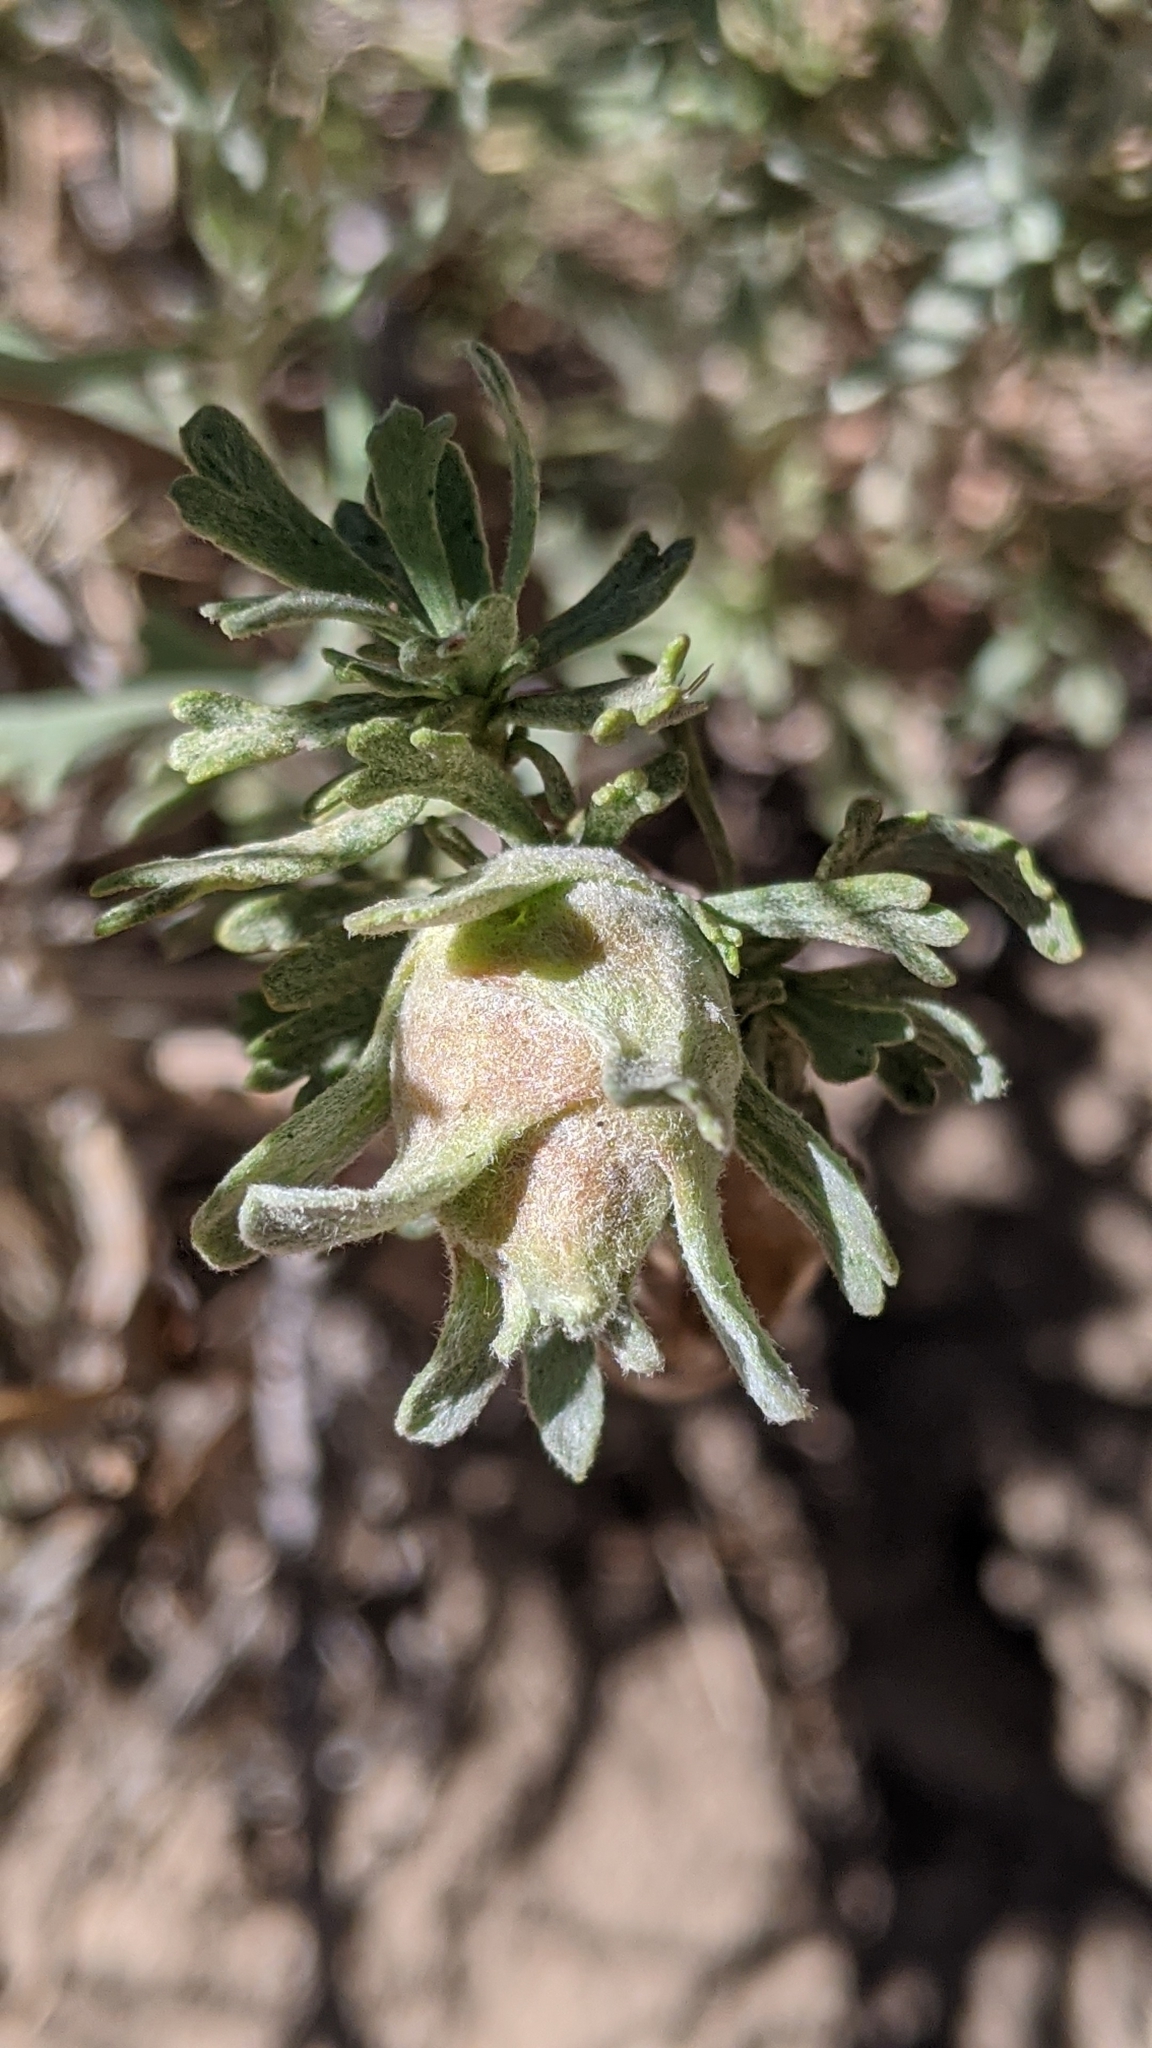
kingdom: Animalia
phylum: Arthropoda
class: Insecta
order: Diptera
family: Tephritidae
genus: Eutreta
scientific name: Eutreta diana
